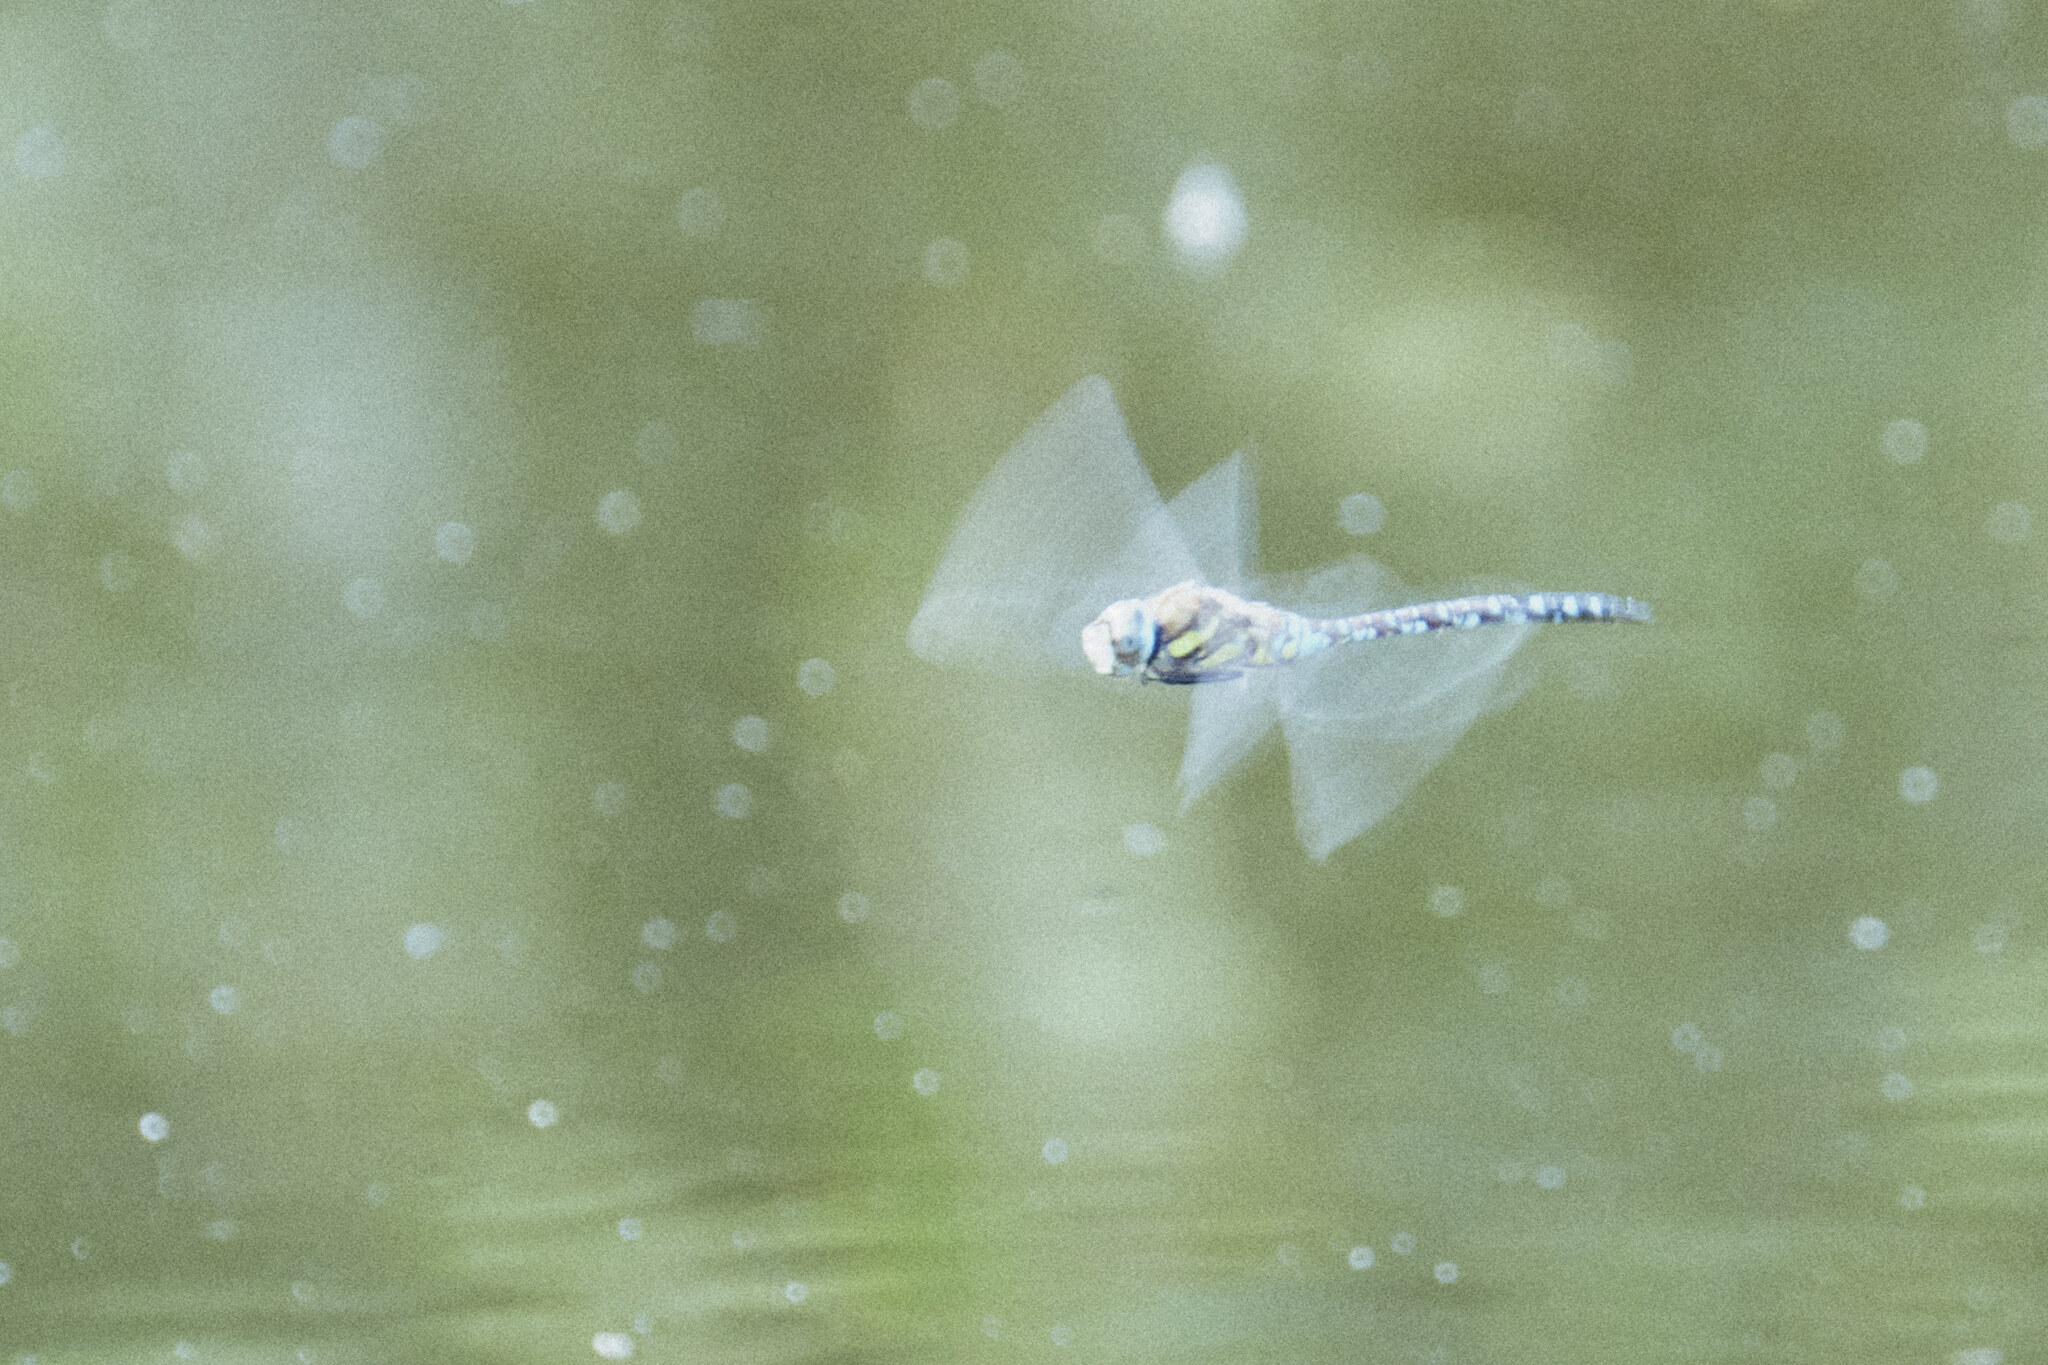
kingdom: Animalia
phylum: Arthropoda
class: Insecta
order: Odonata
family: Aeshnidae
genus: Aeshna
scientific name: Aeshna mixta
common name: Migrant hawker
